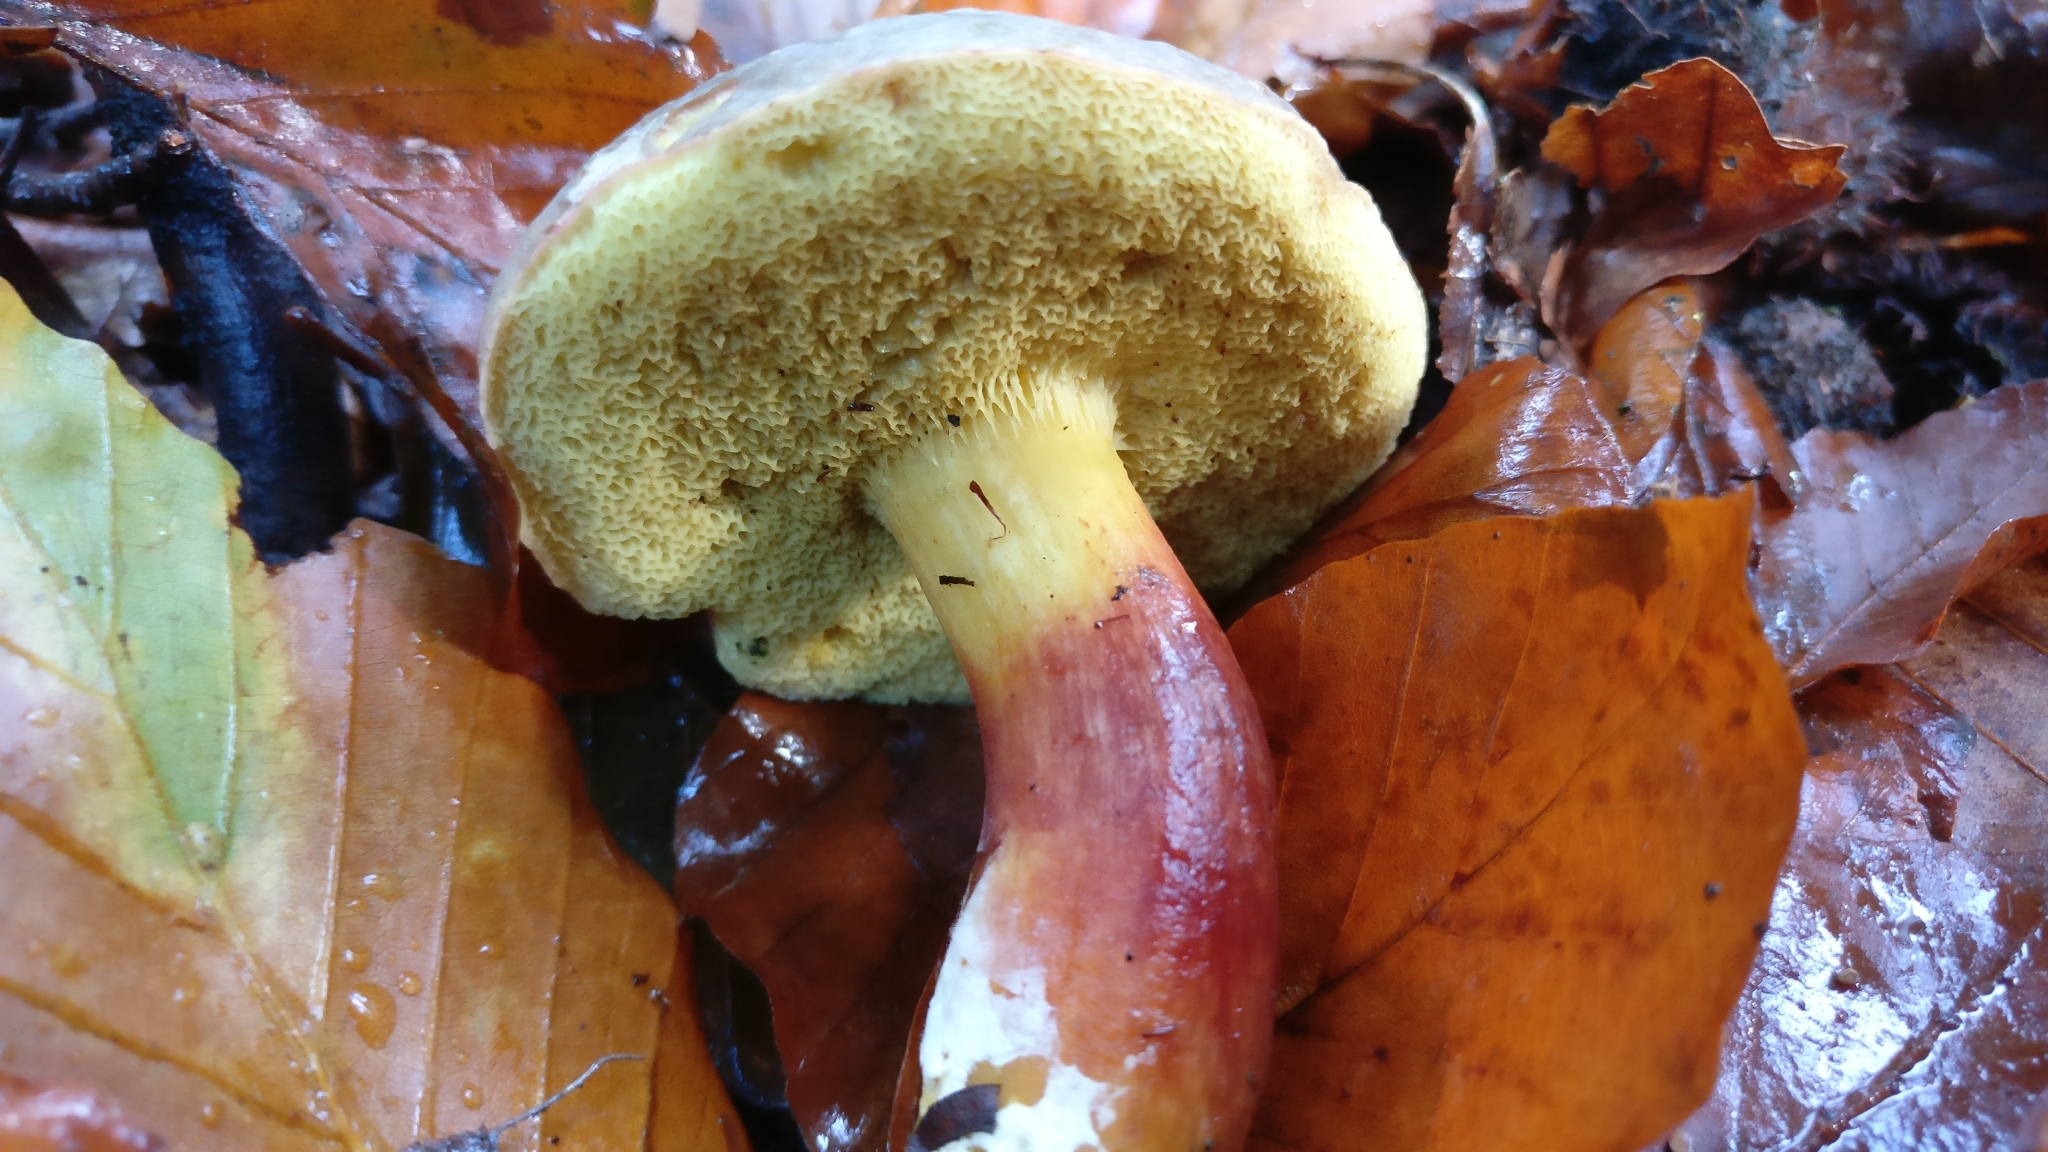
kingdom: Fungi
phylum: Basidiomycota
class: Agaricomycetes
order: Boletales
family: Boletaceae
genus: Xerocomellus
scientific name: Xerocomellus chrysenteron
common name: Red-cracking bolete
